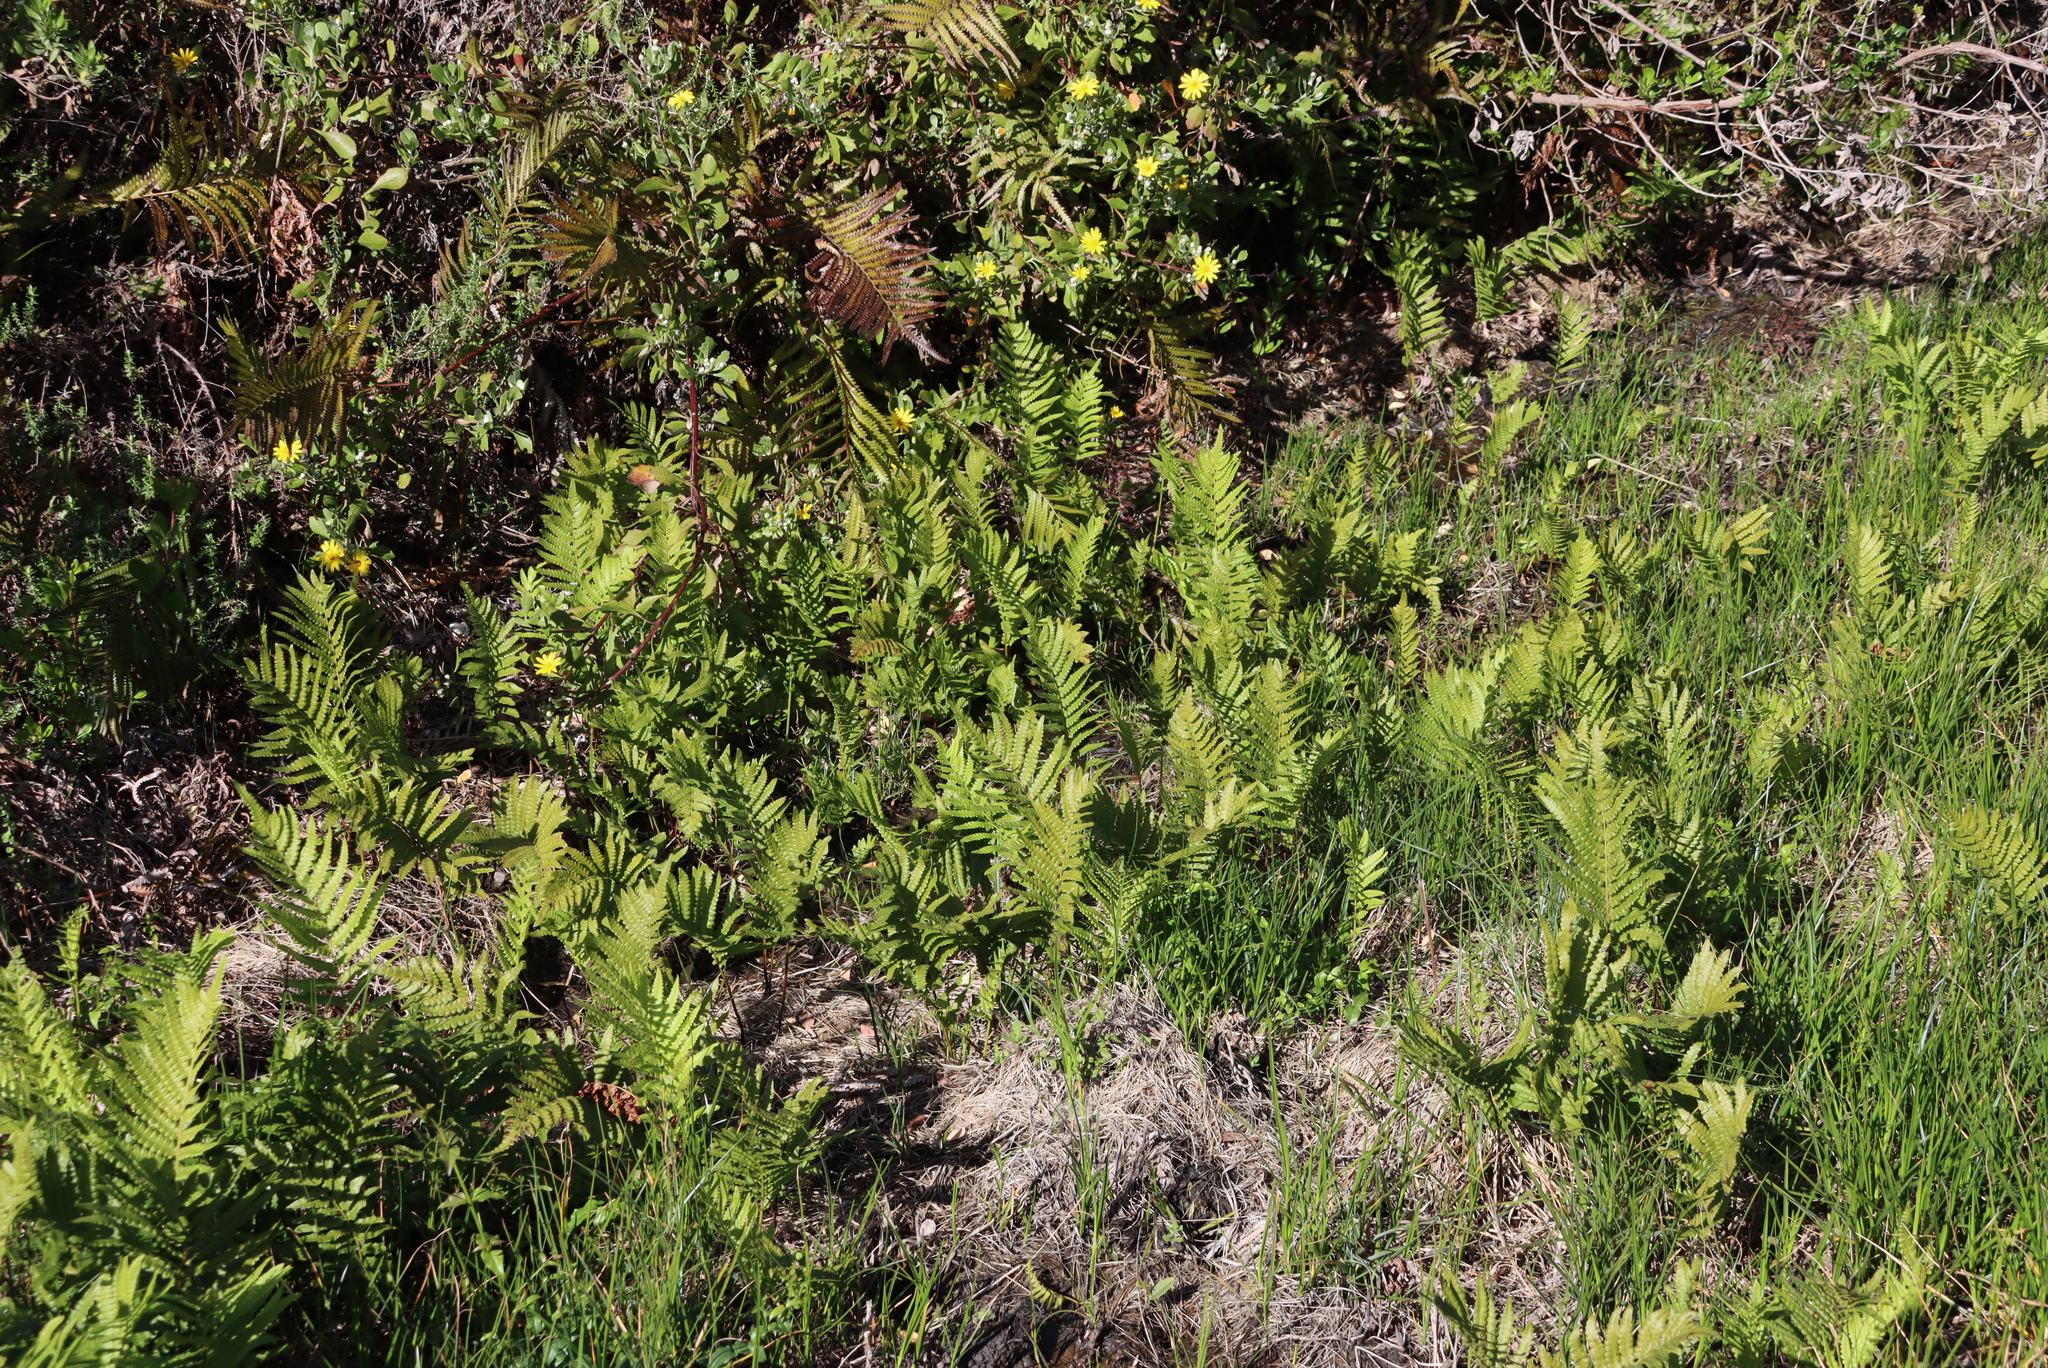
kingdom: Plantae
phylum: Tracheophyta
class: Polypodiopsida
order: Polypodiales
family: Thelypteridaceae
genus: Cyclosorus
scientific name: Cyclosorus interruptus
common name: Neke fern
